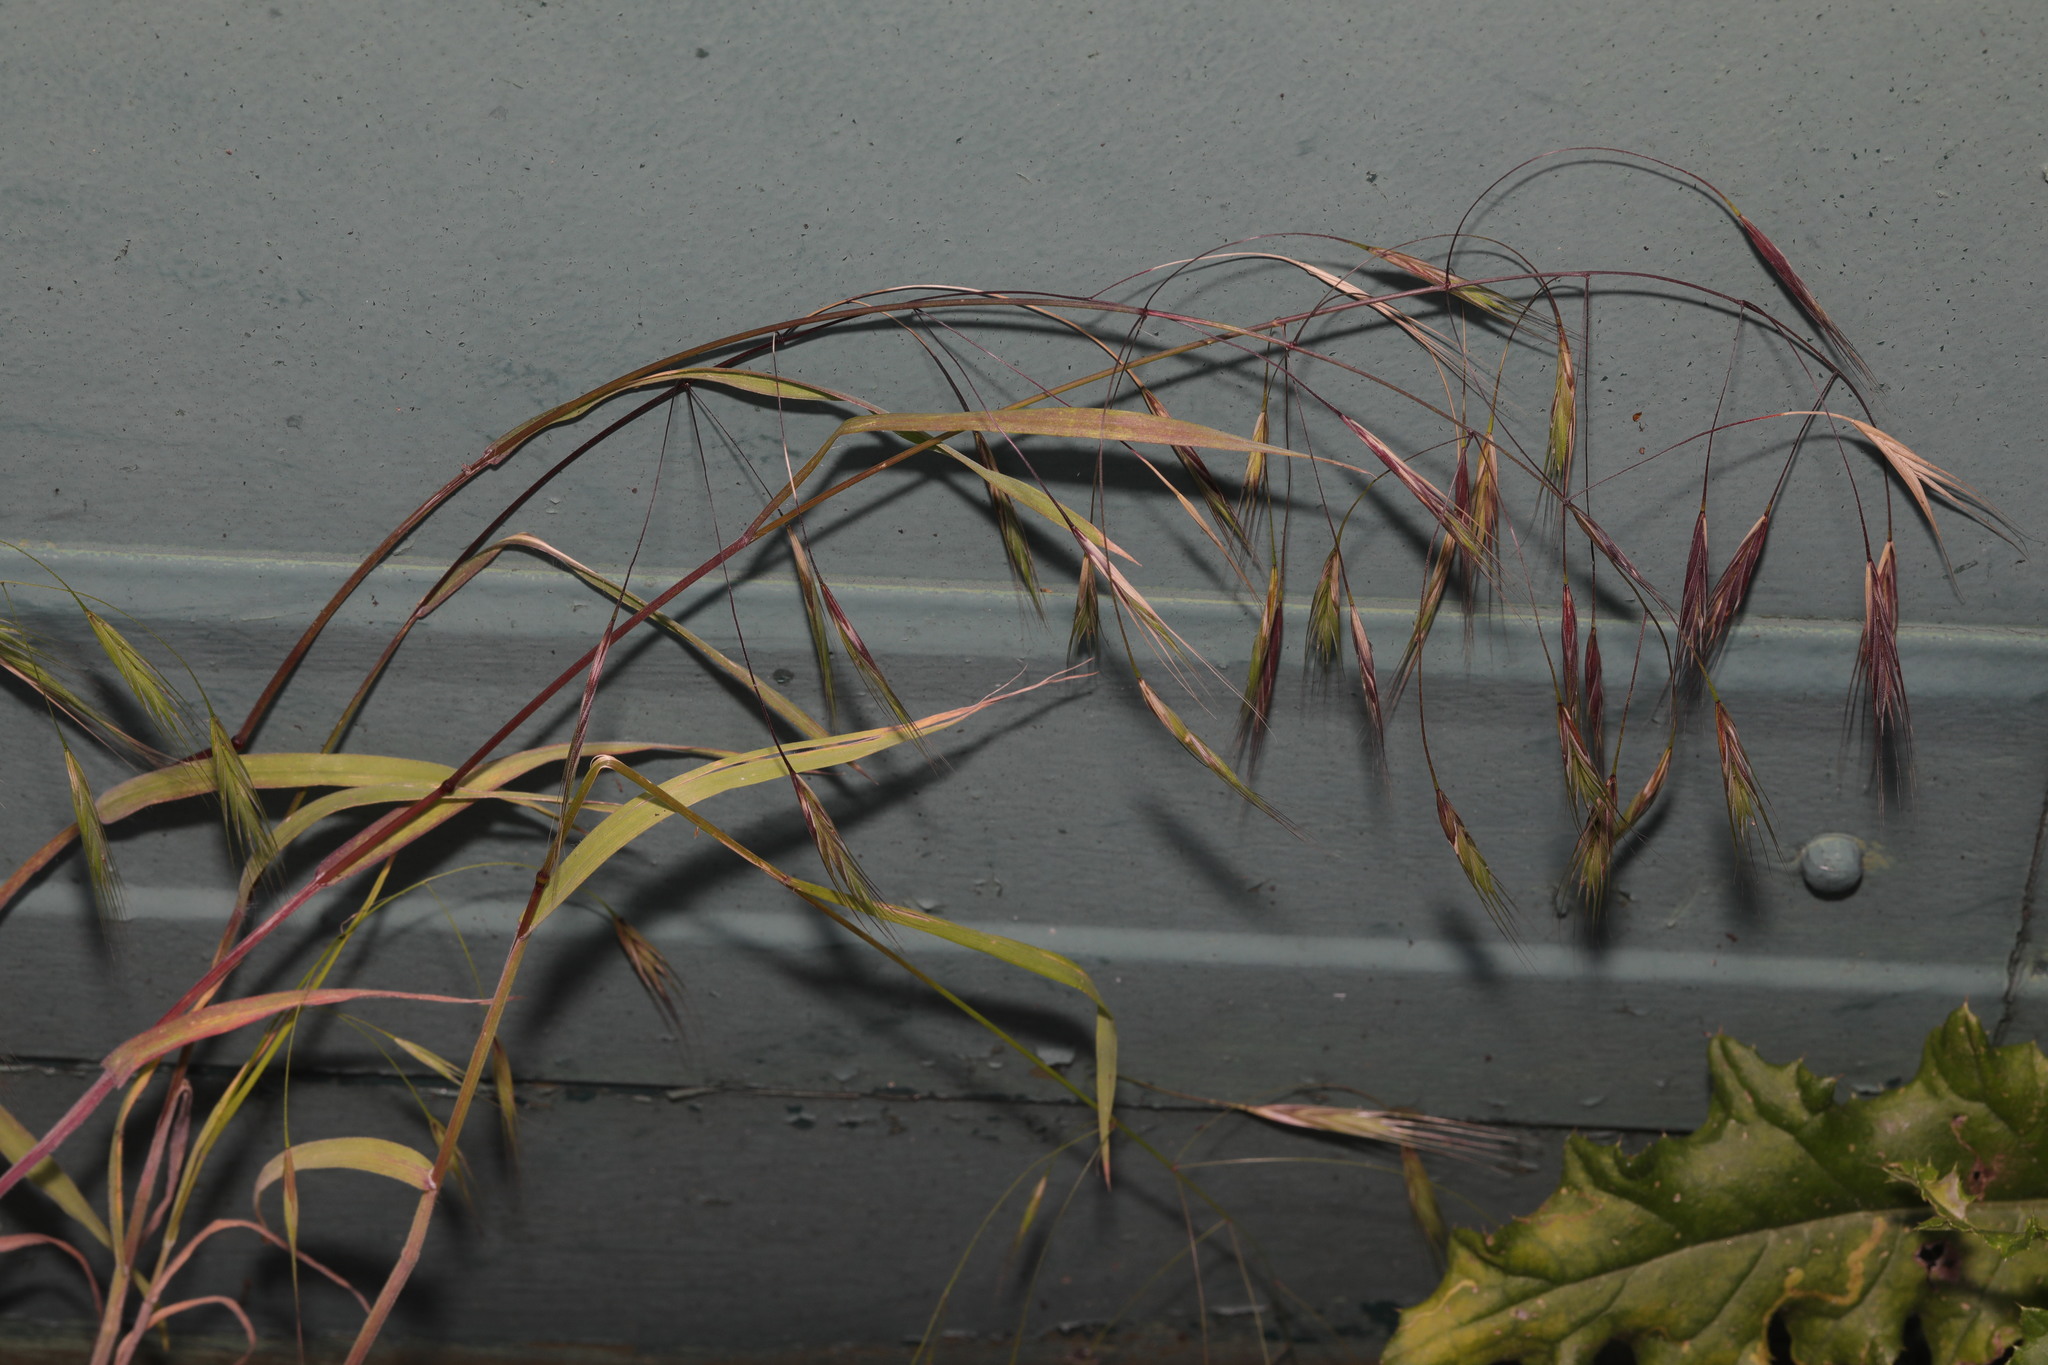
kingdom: Plantae
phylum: Tracheophyta
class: Liliopsida
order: Poales
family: Poaceae
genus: Bromus
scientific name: Bromus sterilis
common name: Poverty brome
